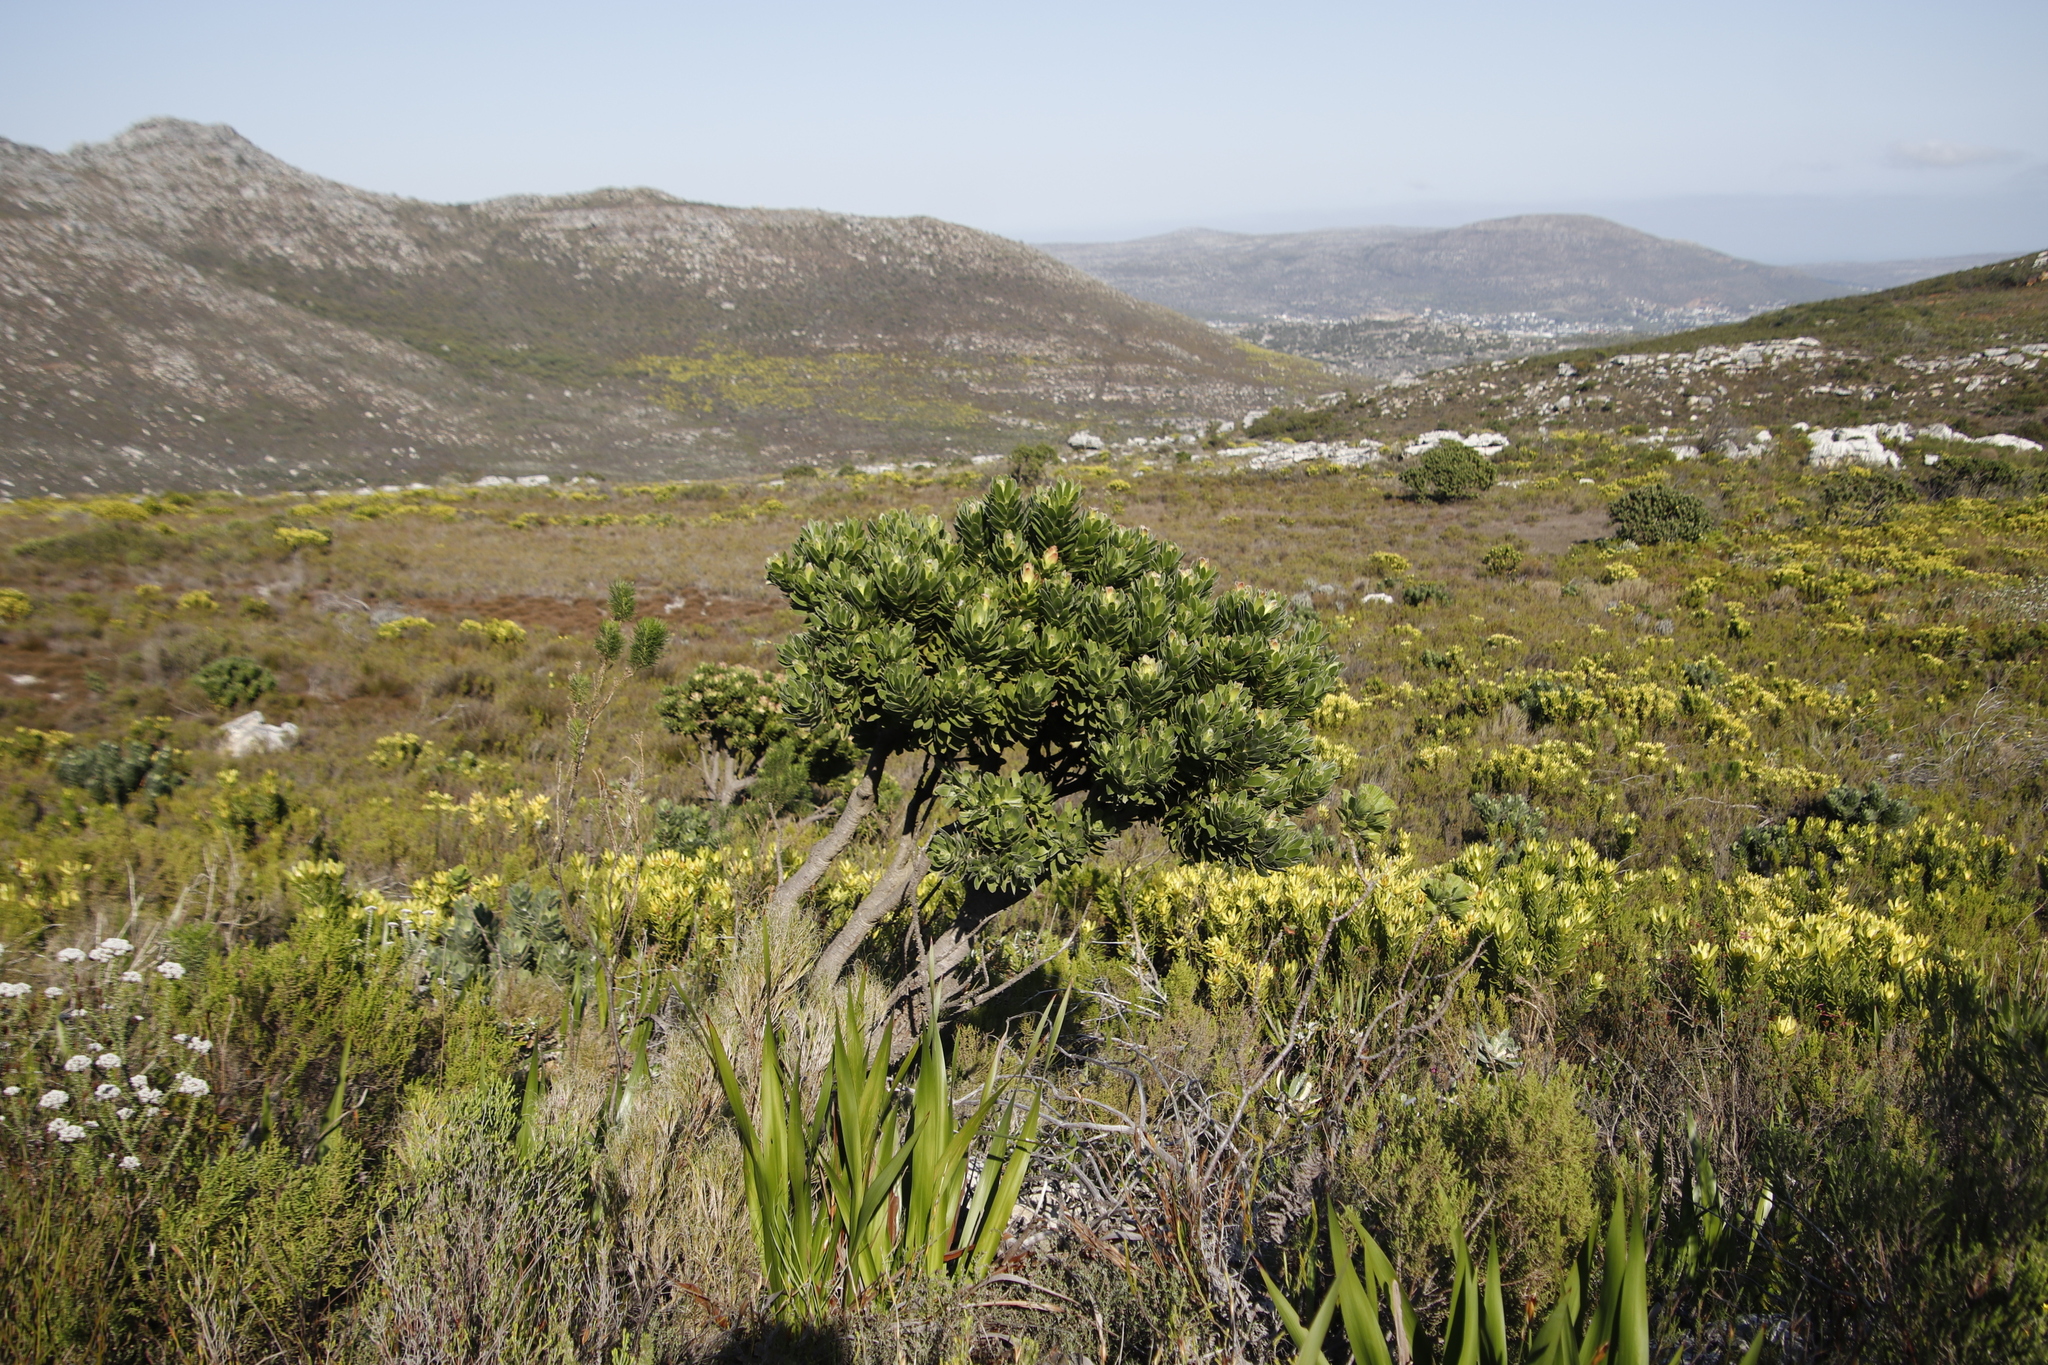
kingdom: Plantae
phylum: Tracheophyta
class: Magnoliopsida
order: Proteales
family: Proteaceae
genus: Mimetes
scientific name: Mimetes fimbriifolius
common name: Fringed bottlebrush
